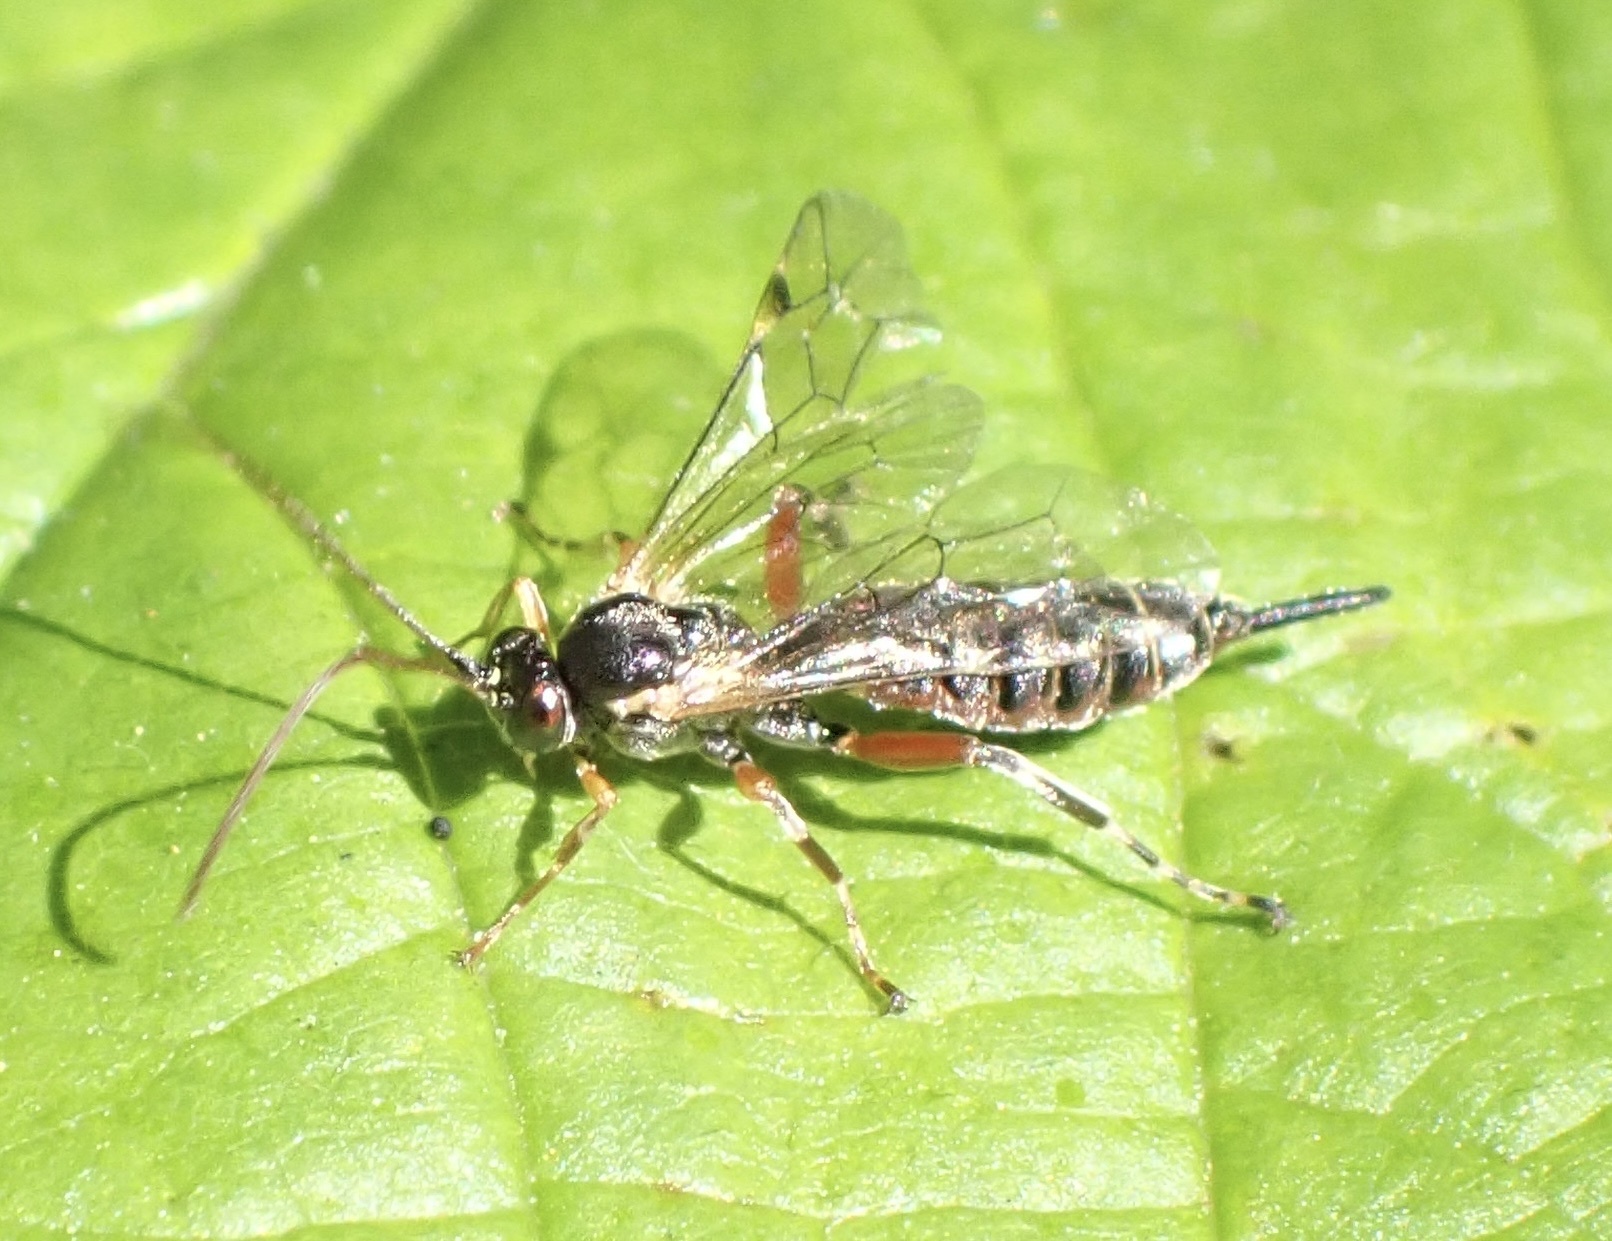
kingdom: Animalia
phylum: Arthropoda
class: Insecta
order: Hymenoptera
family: Ichneumonidae
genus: Itoplectis
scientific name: Itoplectis maculator
